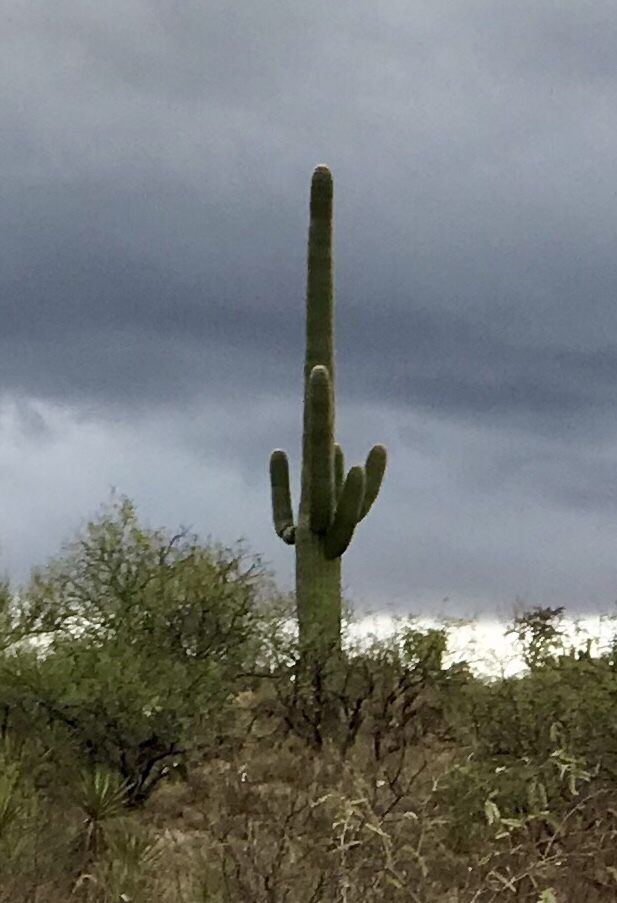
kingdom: Plantae
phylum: Tracheophyta
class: Magnoliopsida
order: Caryophyllales
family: Cactaceae
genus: Carnegiea
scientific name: Carnegiea gigantea
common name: Saguaro
